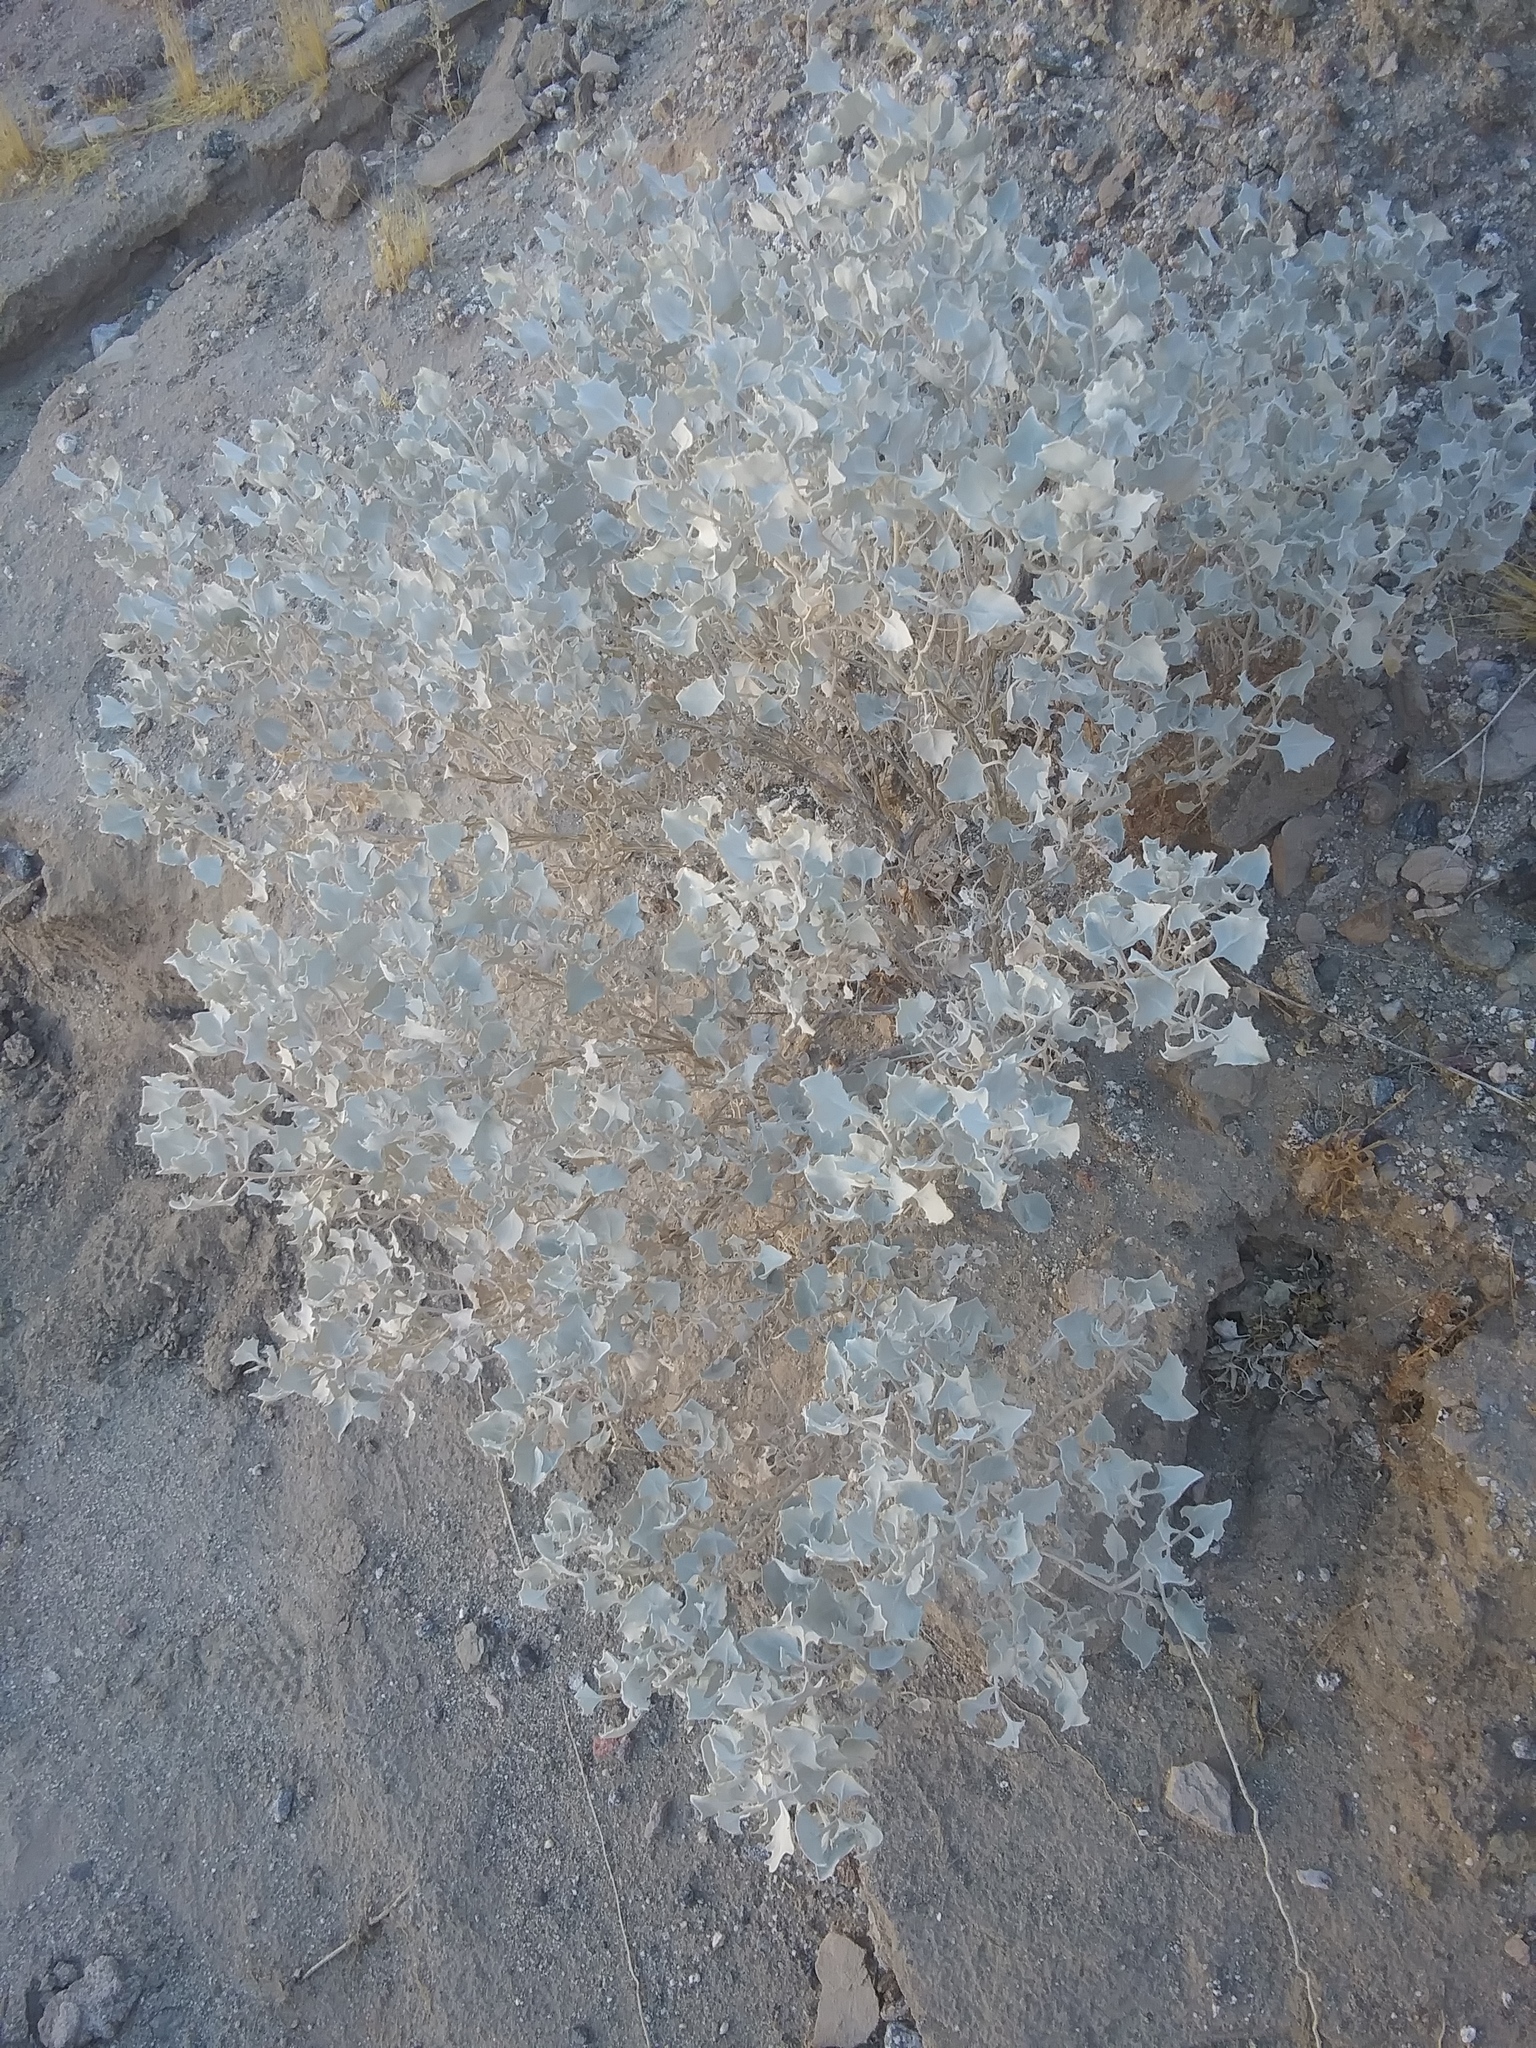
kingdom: Plantae
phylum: Tracheophyta
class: Magnoliopsida
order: Caryophyllales
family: Amaranthaceae
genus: Atriplex
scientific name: Atriplex hymenelytra
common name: Desert-holly
